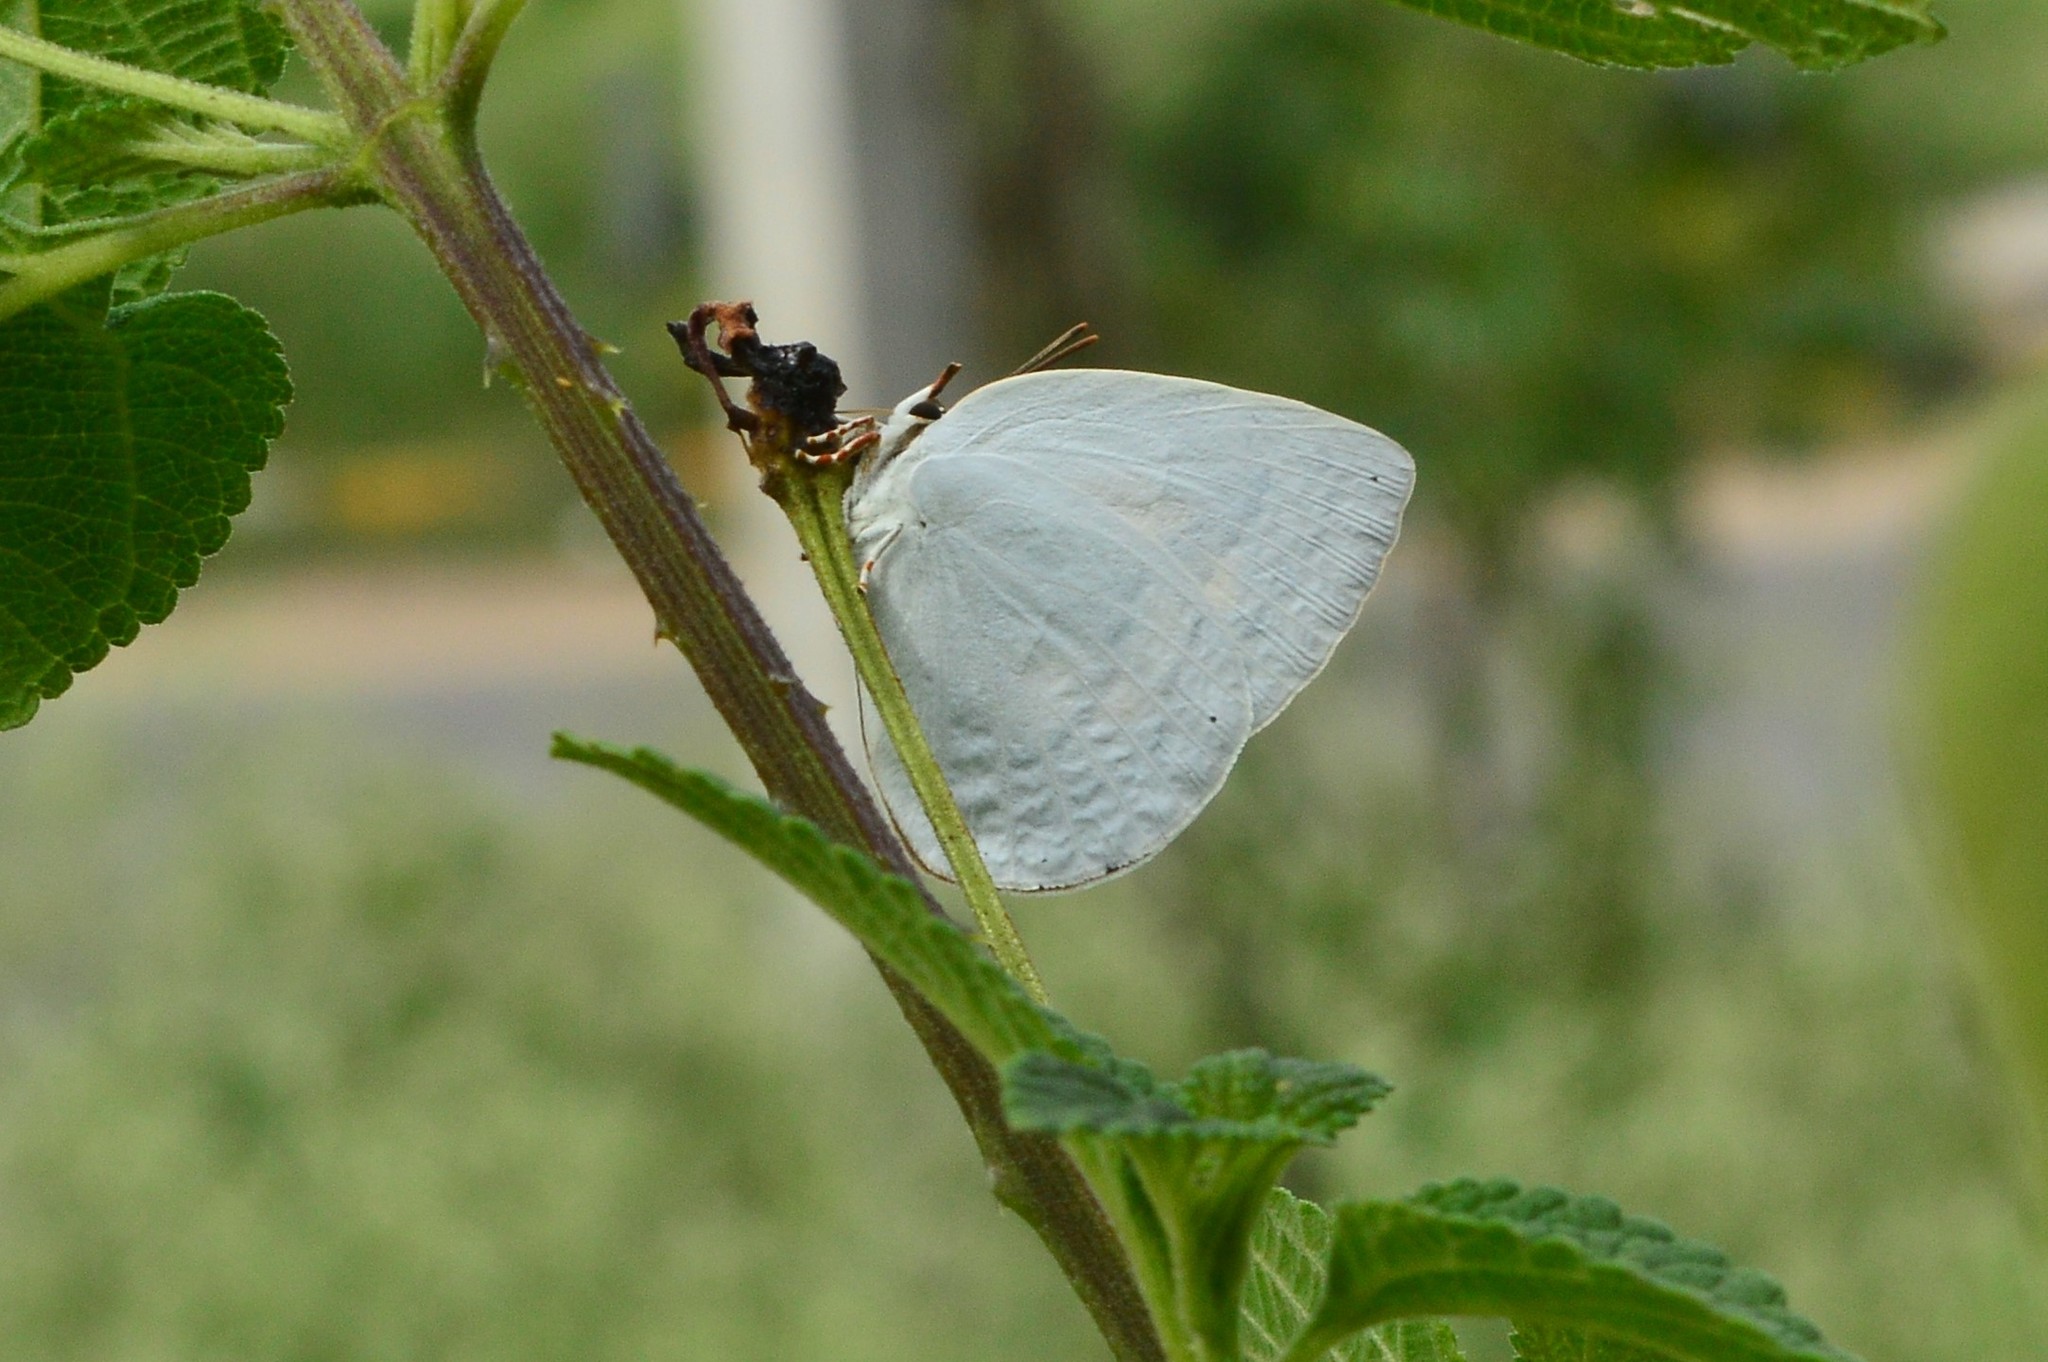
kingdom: Animalia
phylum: Arthropoda
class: Insecta
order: Lepidoptera
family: Lycaenidae
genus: Curetis
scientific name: Curetis thetis
